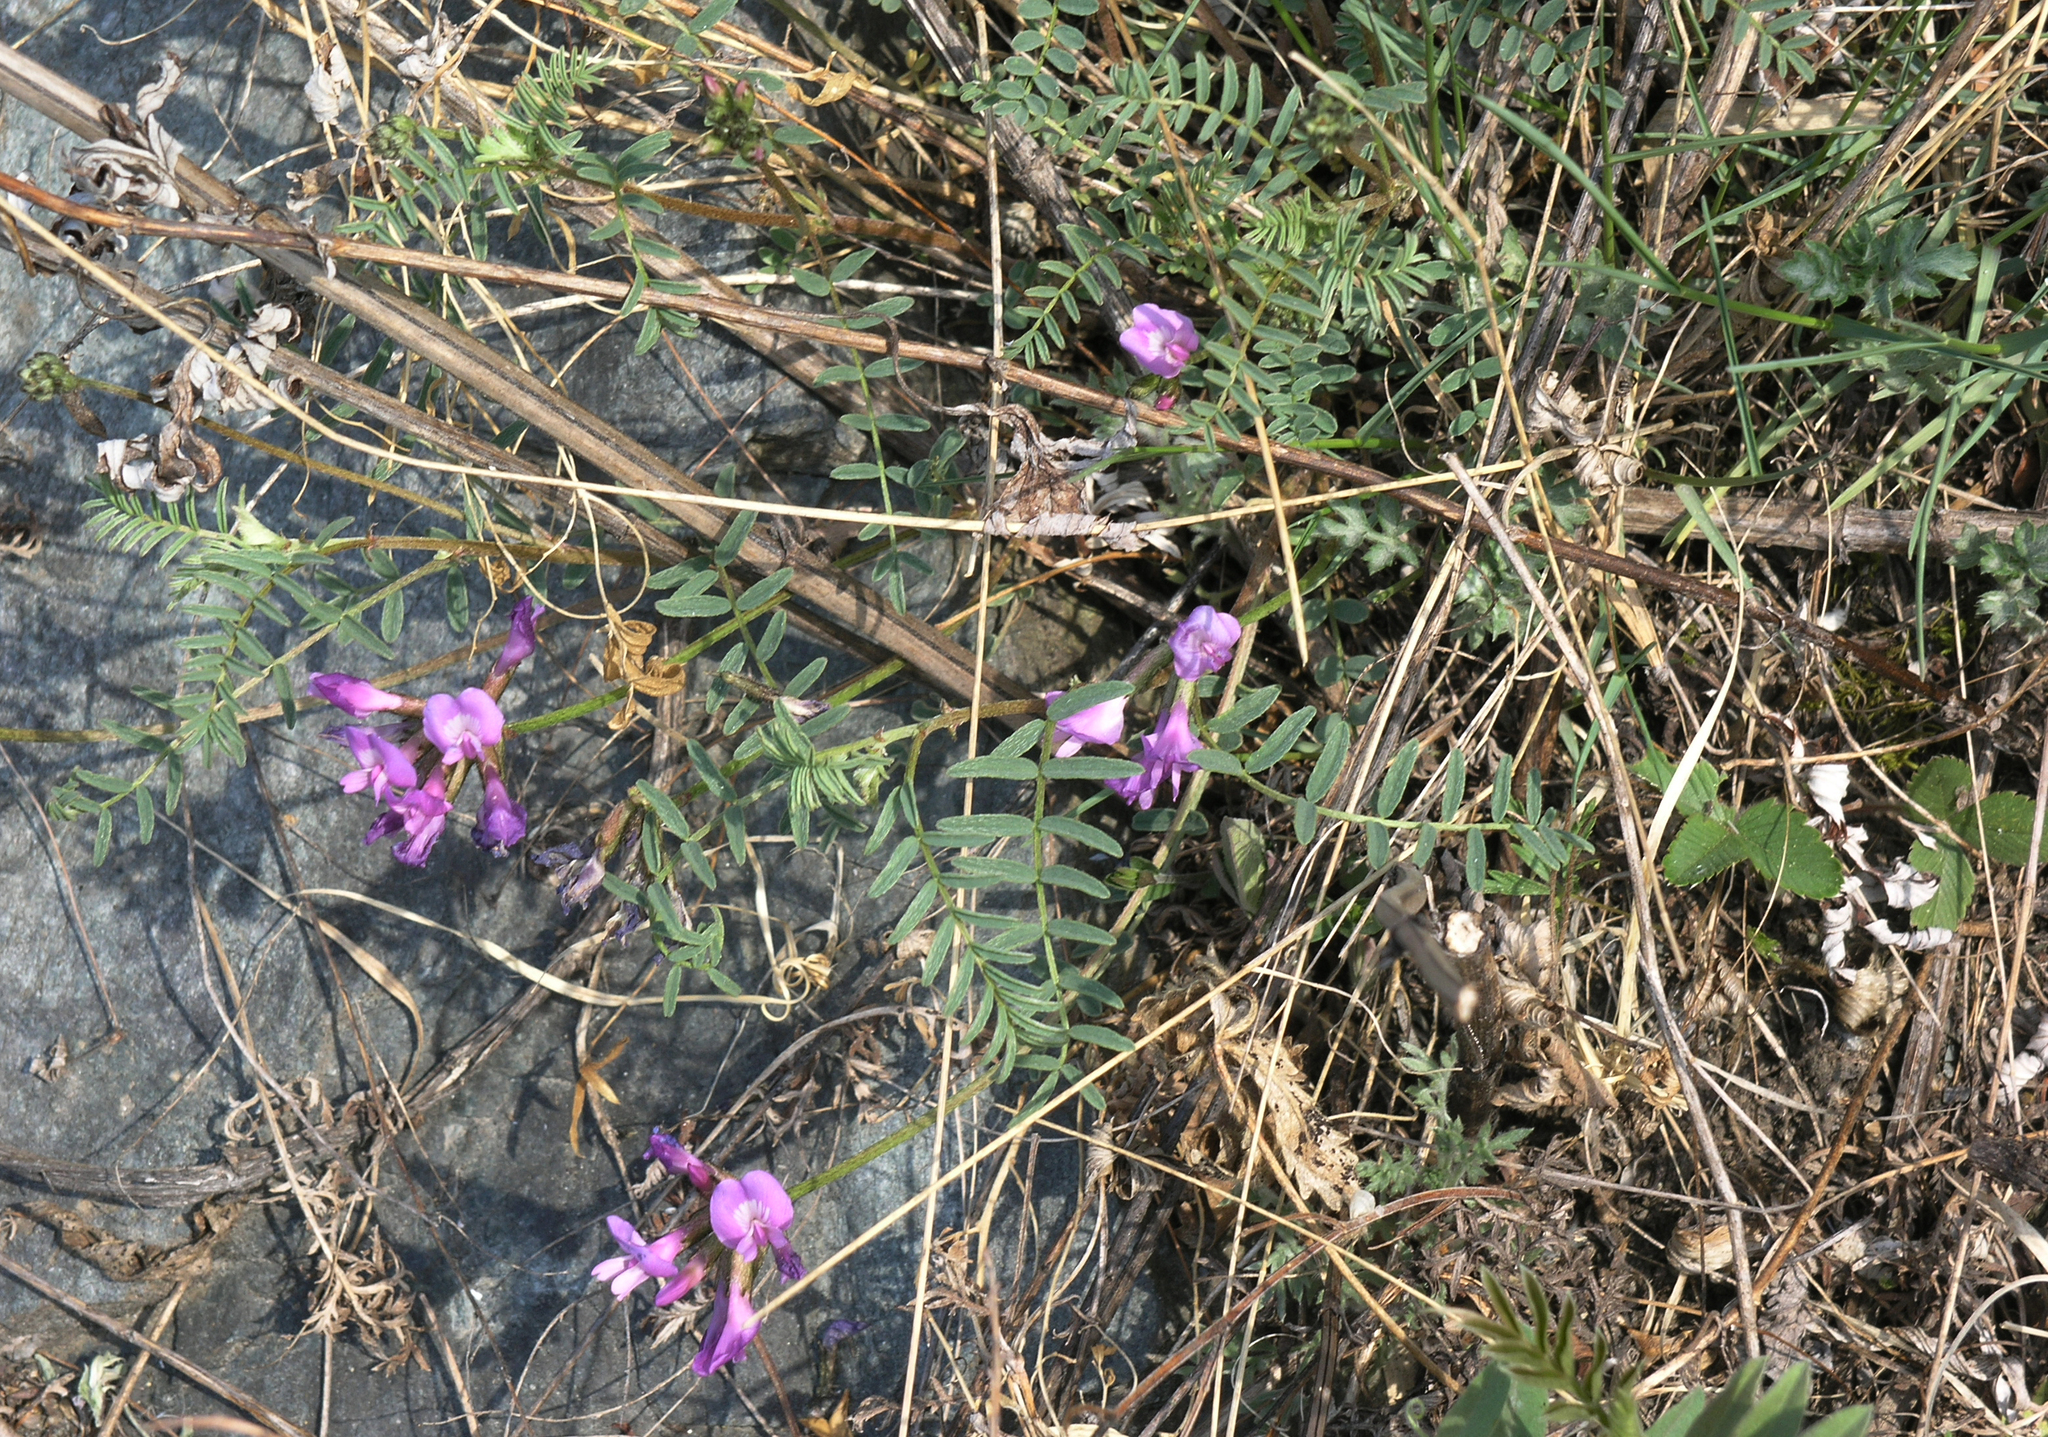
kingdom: Plantae
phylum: Tracheophyta
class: Magnoliopsida
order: Fabales
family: Fabaceae
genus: Astragalus
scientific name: Astragalus syriacus
